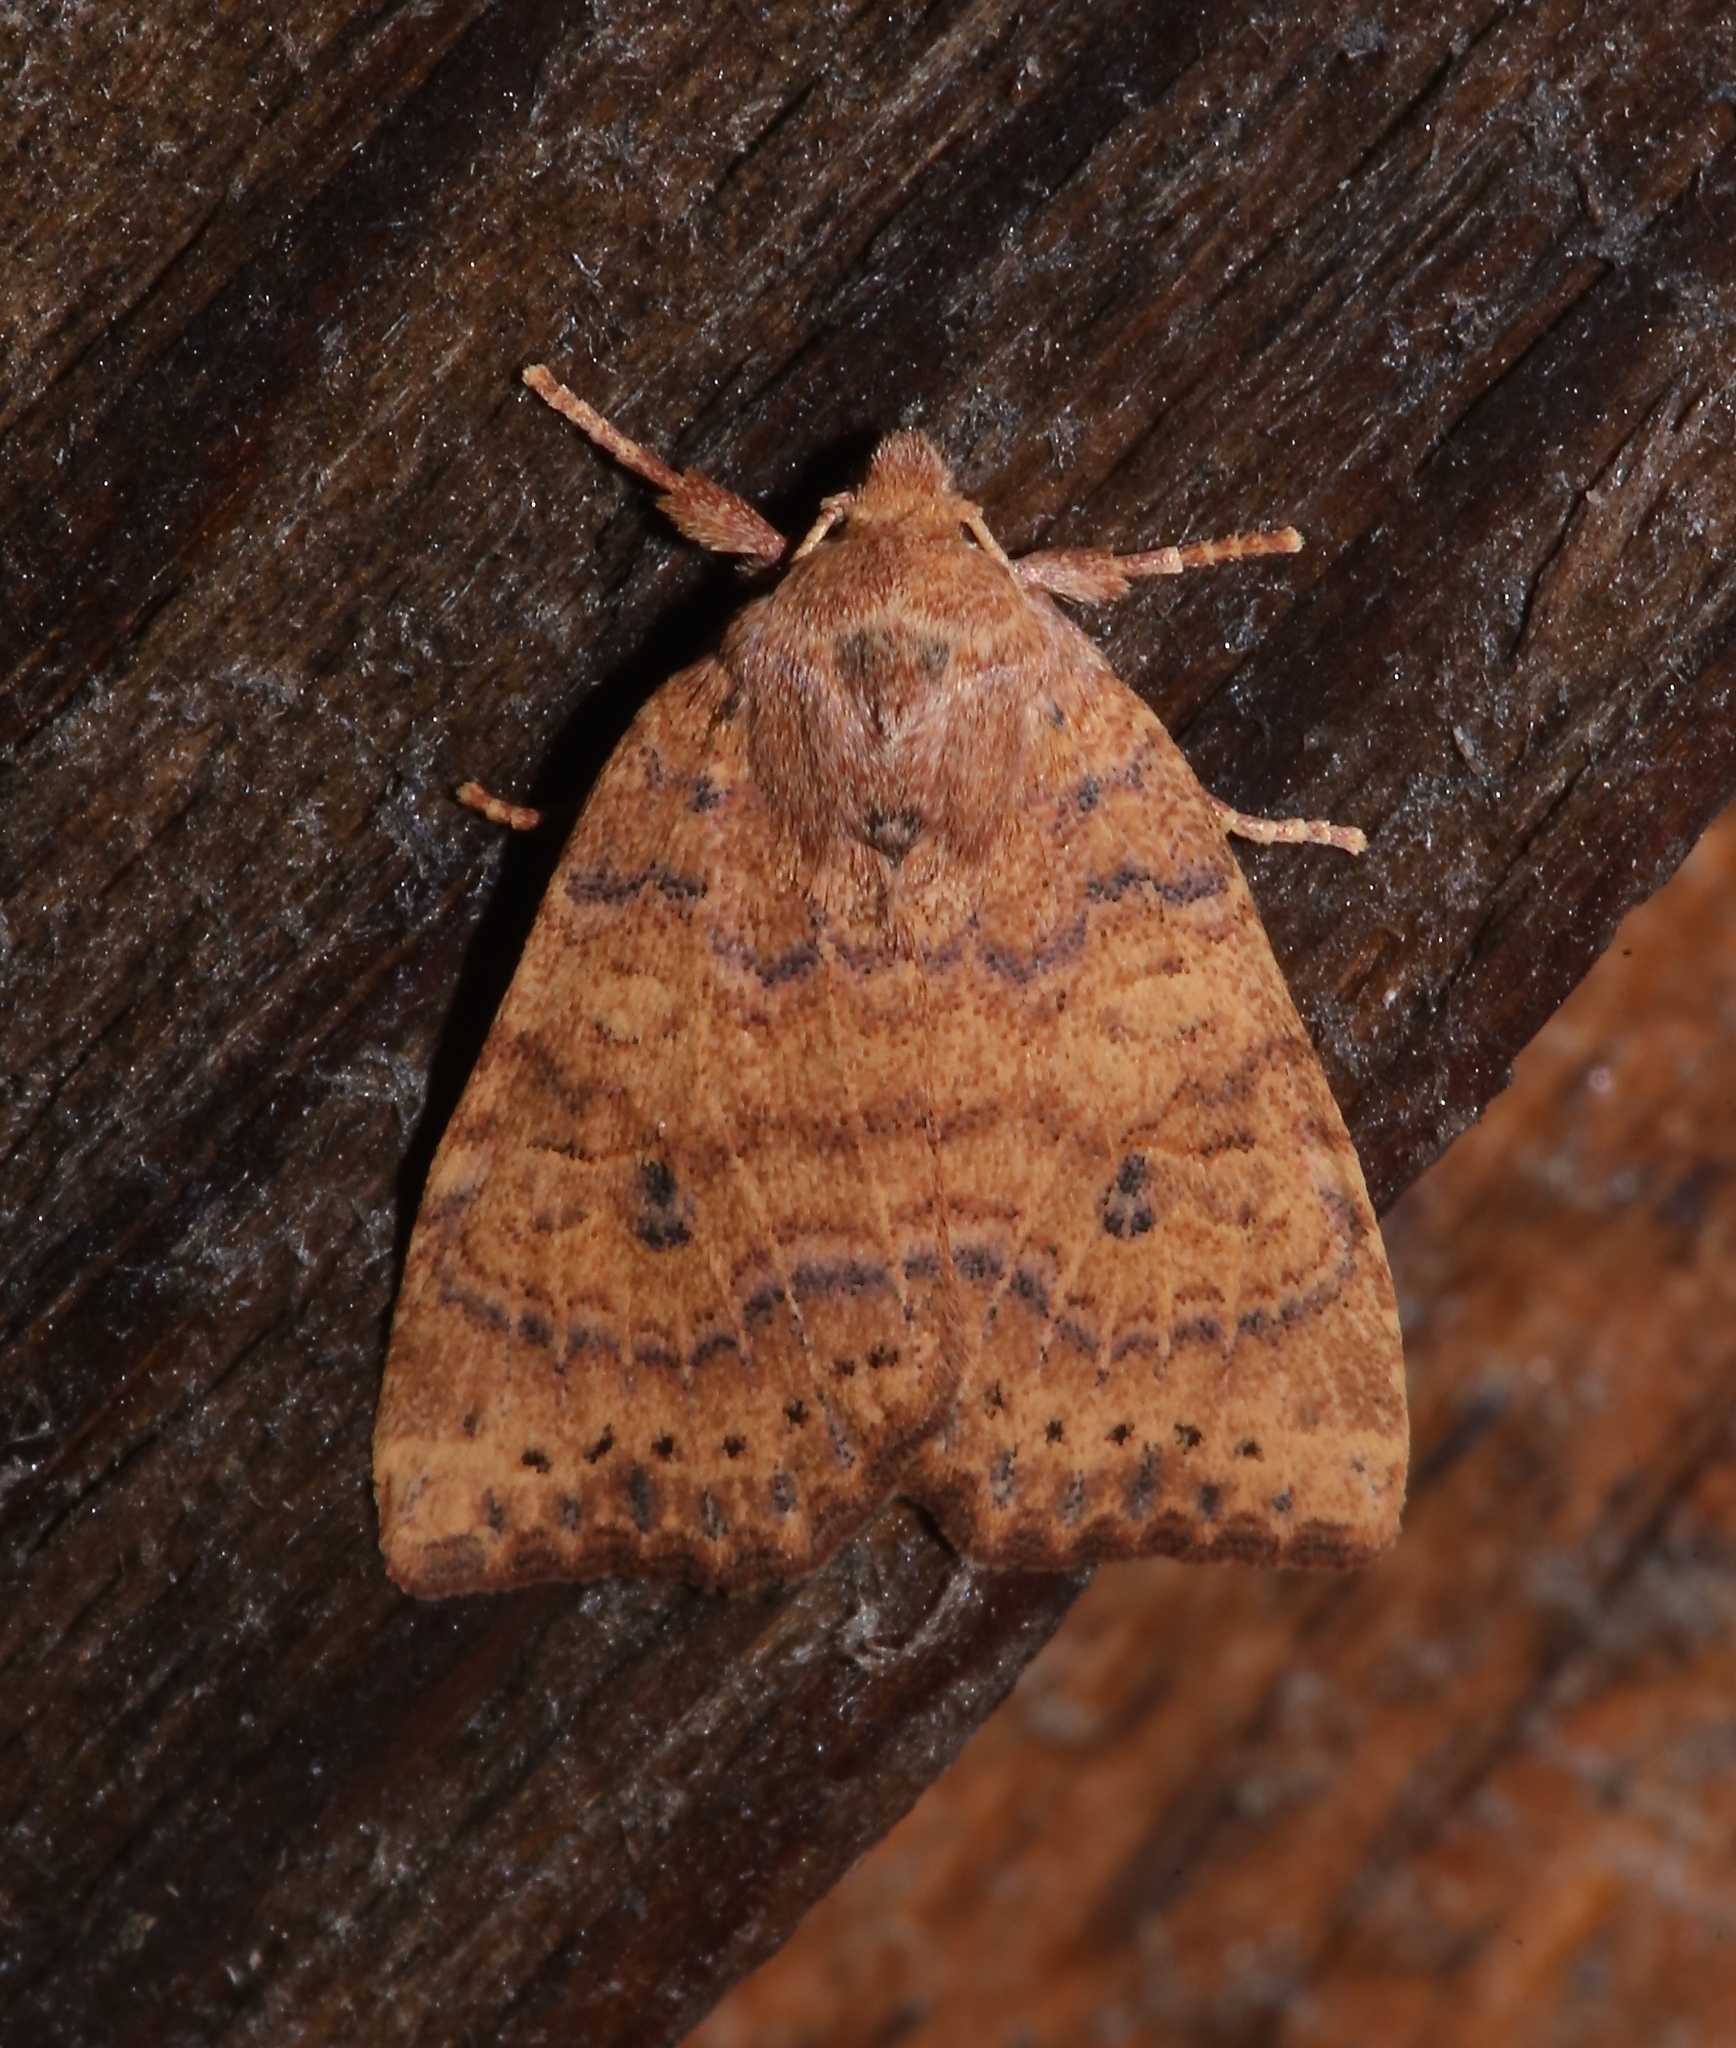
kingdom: Animalia
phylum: Arthropoda
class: Insecta
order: Lepidoptera
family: Noctuidae
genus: Anathix
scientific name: Anathix ralla
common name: Dotted sallow
